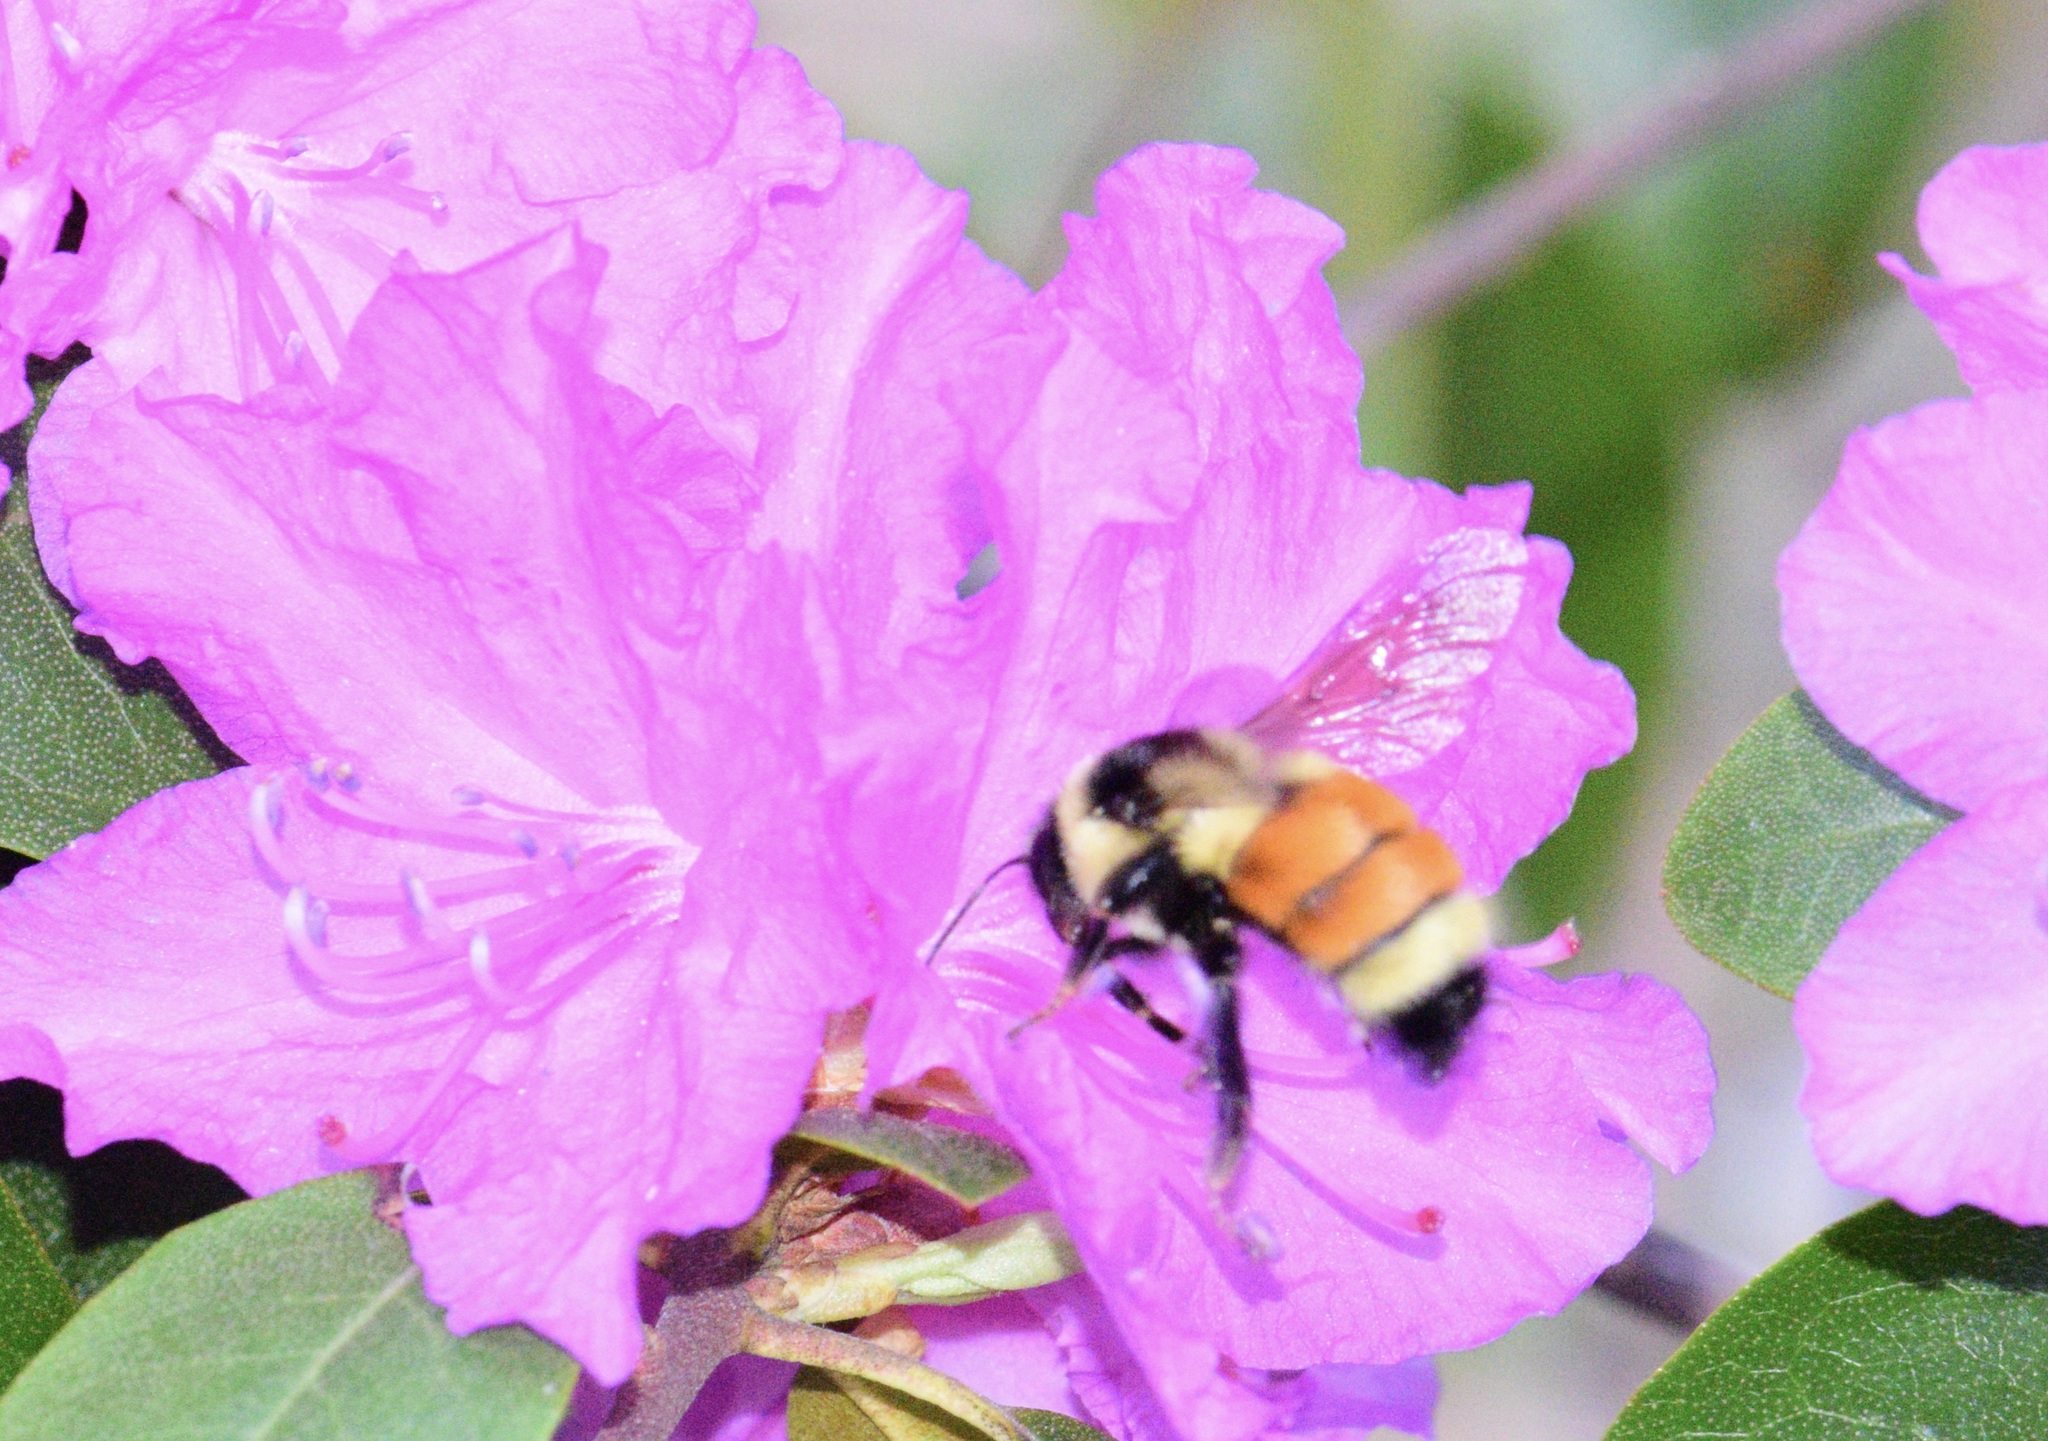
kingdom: Animalia
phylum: Arthropoda
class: Insecta
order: Hymenoptera
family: Apidae
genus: Bombus
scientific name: Bombus ternarius
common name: Tri-colored bumble bee
